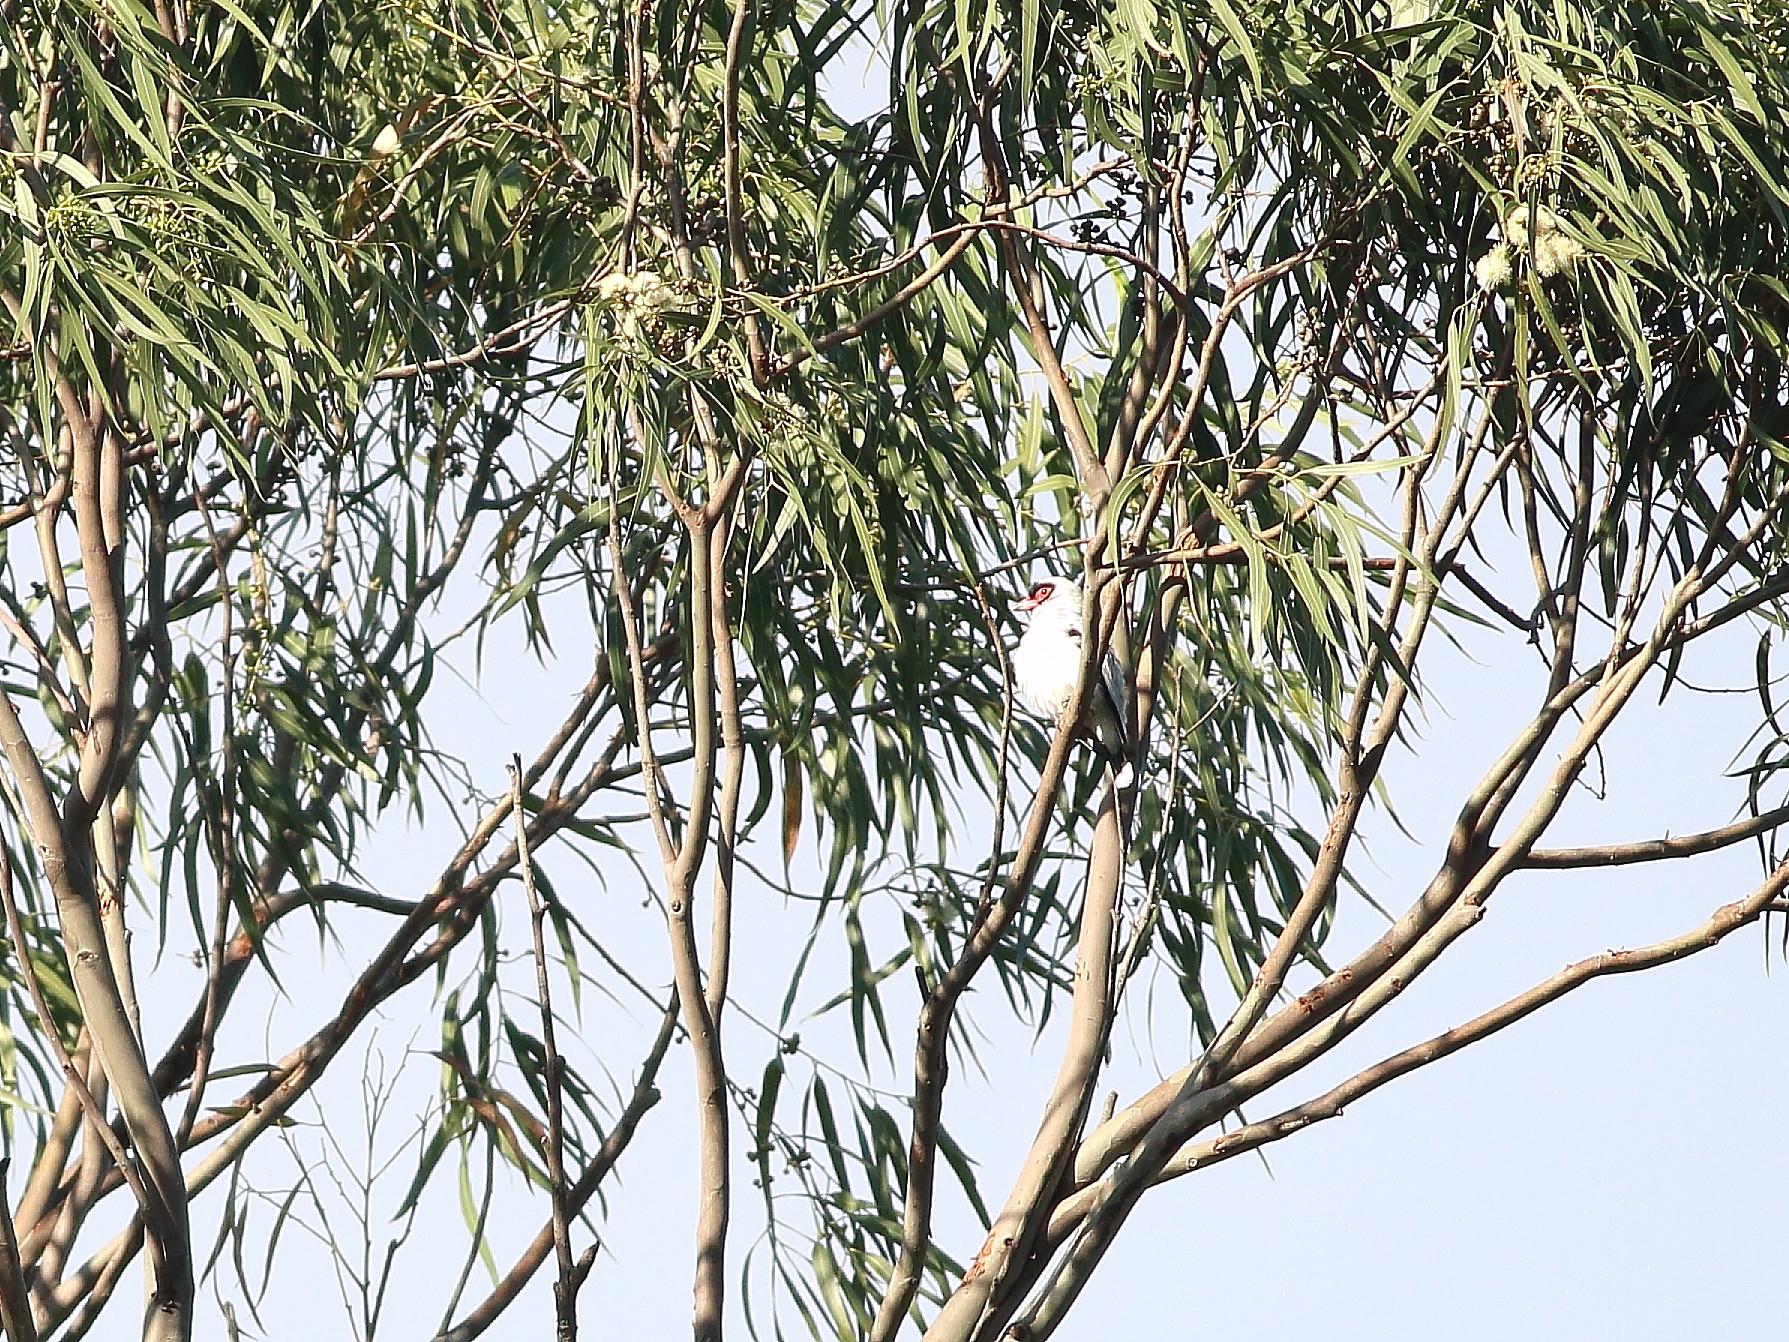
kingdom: Animalia
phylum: Chordata
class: Aves
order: Passeriformes
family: Cotingidae
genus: Tityra
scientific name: Tityra semifasciata
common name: Masked tityra
